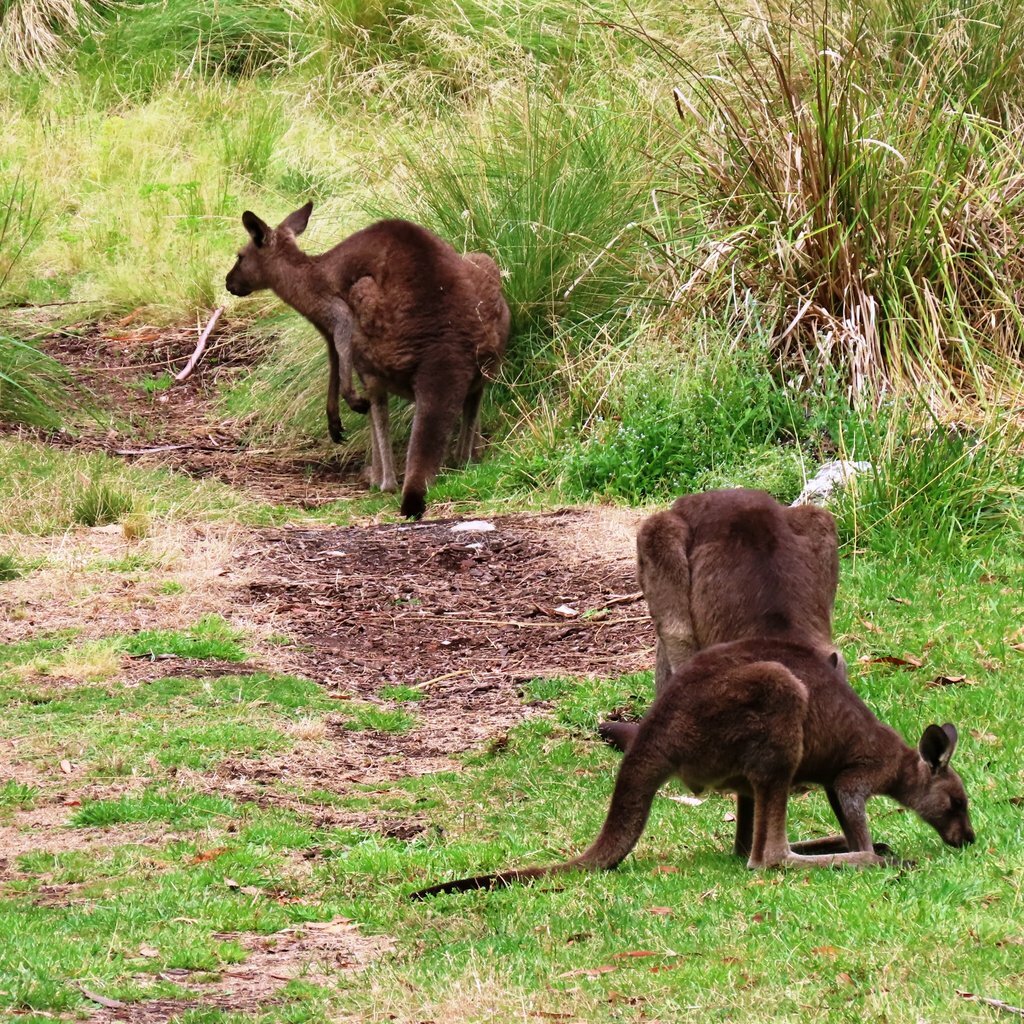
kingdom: Animalia
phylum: Chordata
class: Mammalia
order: Diprotodontia
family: Macropodidae
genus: Macropus
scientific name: Macropus fuliginosus
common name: Western grey kangaroo
